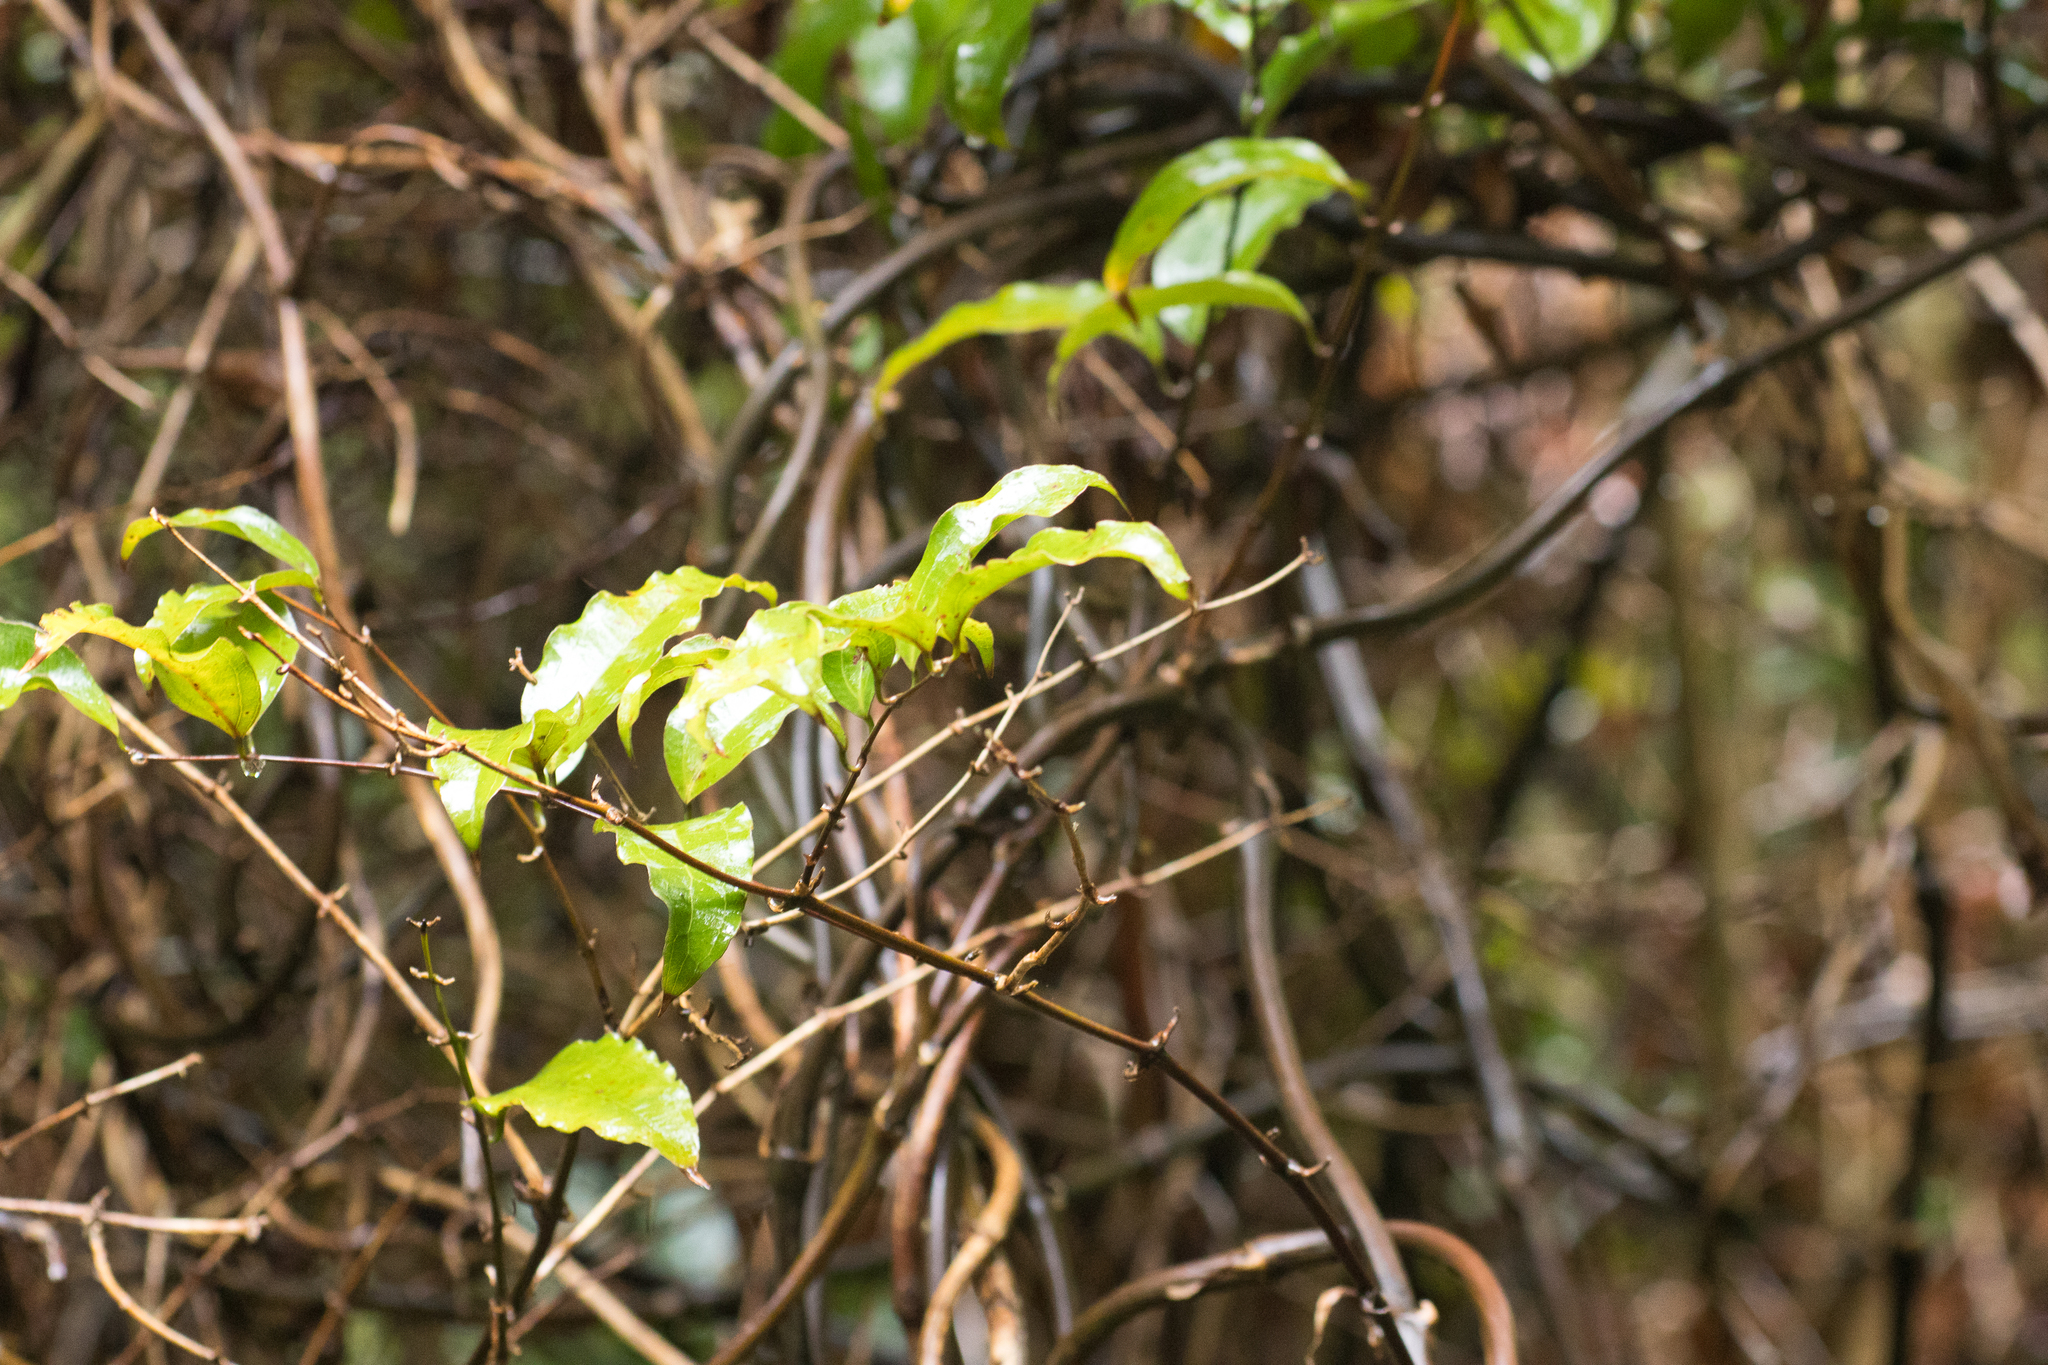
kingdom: Plantae
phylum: Tracheophyta
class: Liliopsida
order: Liliales
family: Ripogonaceae
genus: Ripogonum
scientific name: Ripogonum scandens
